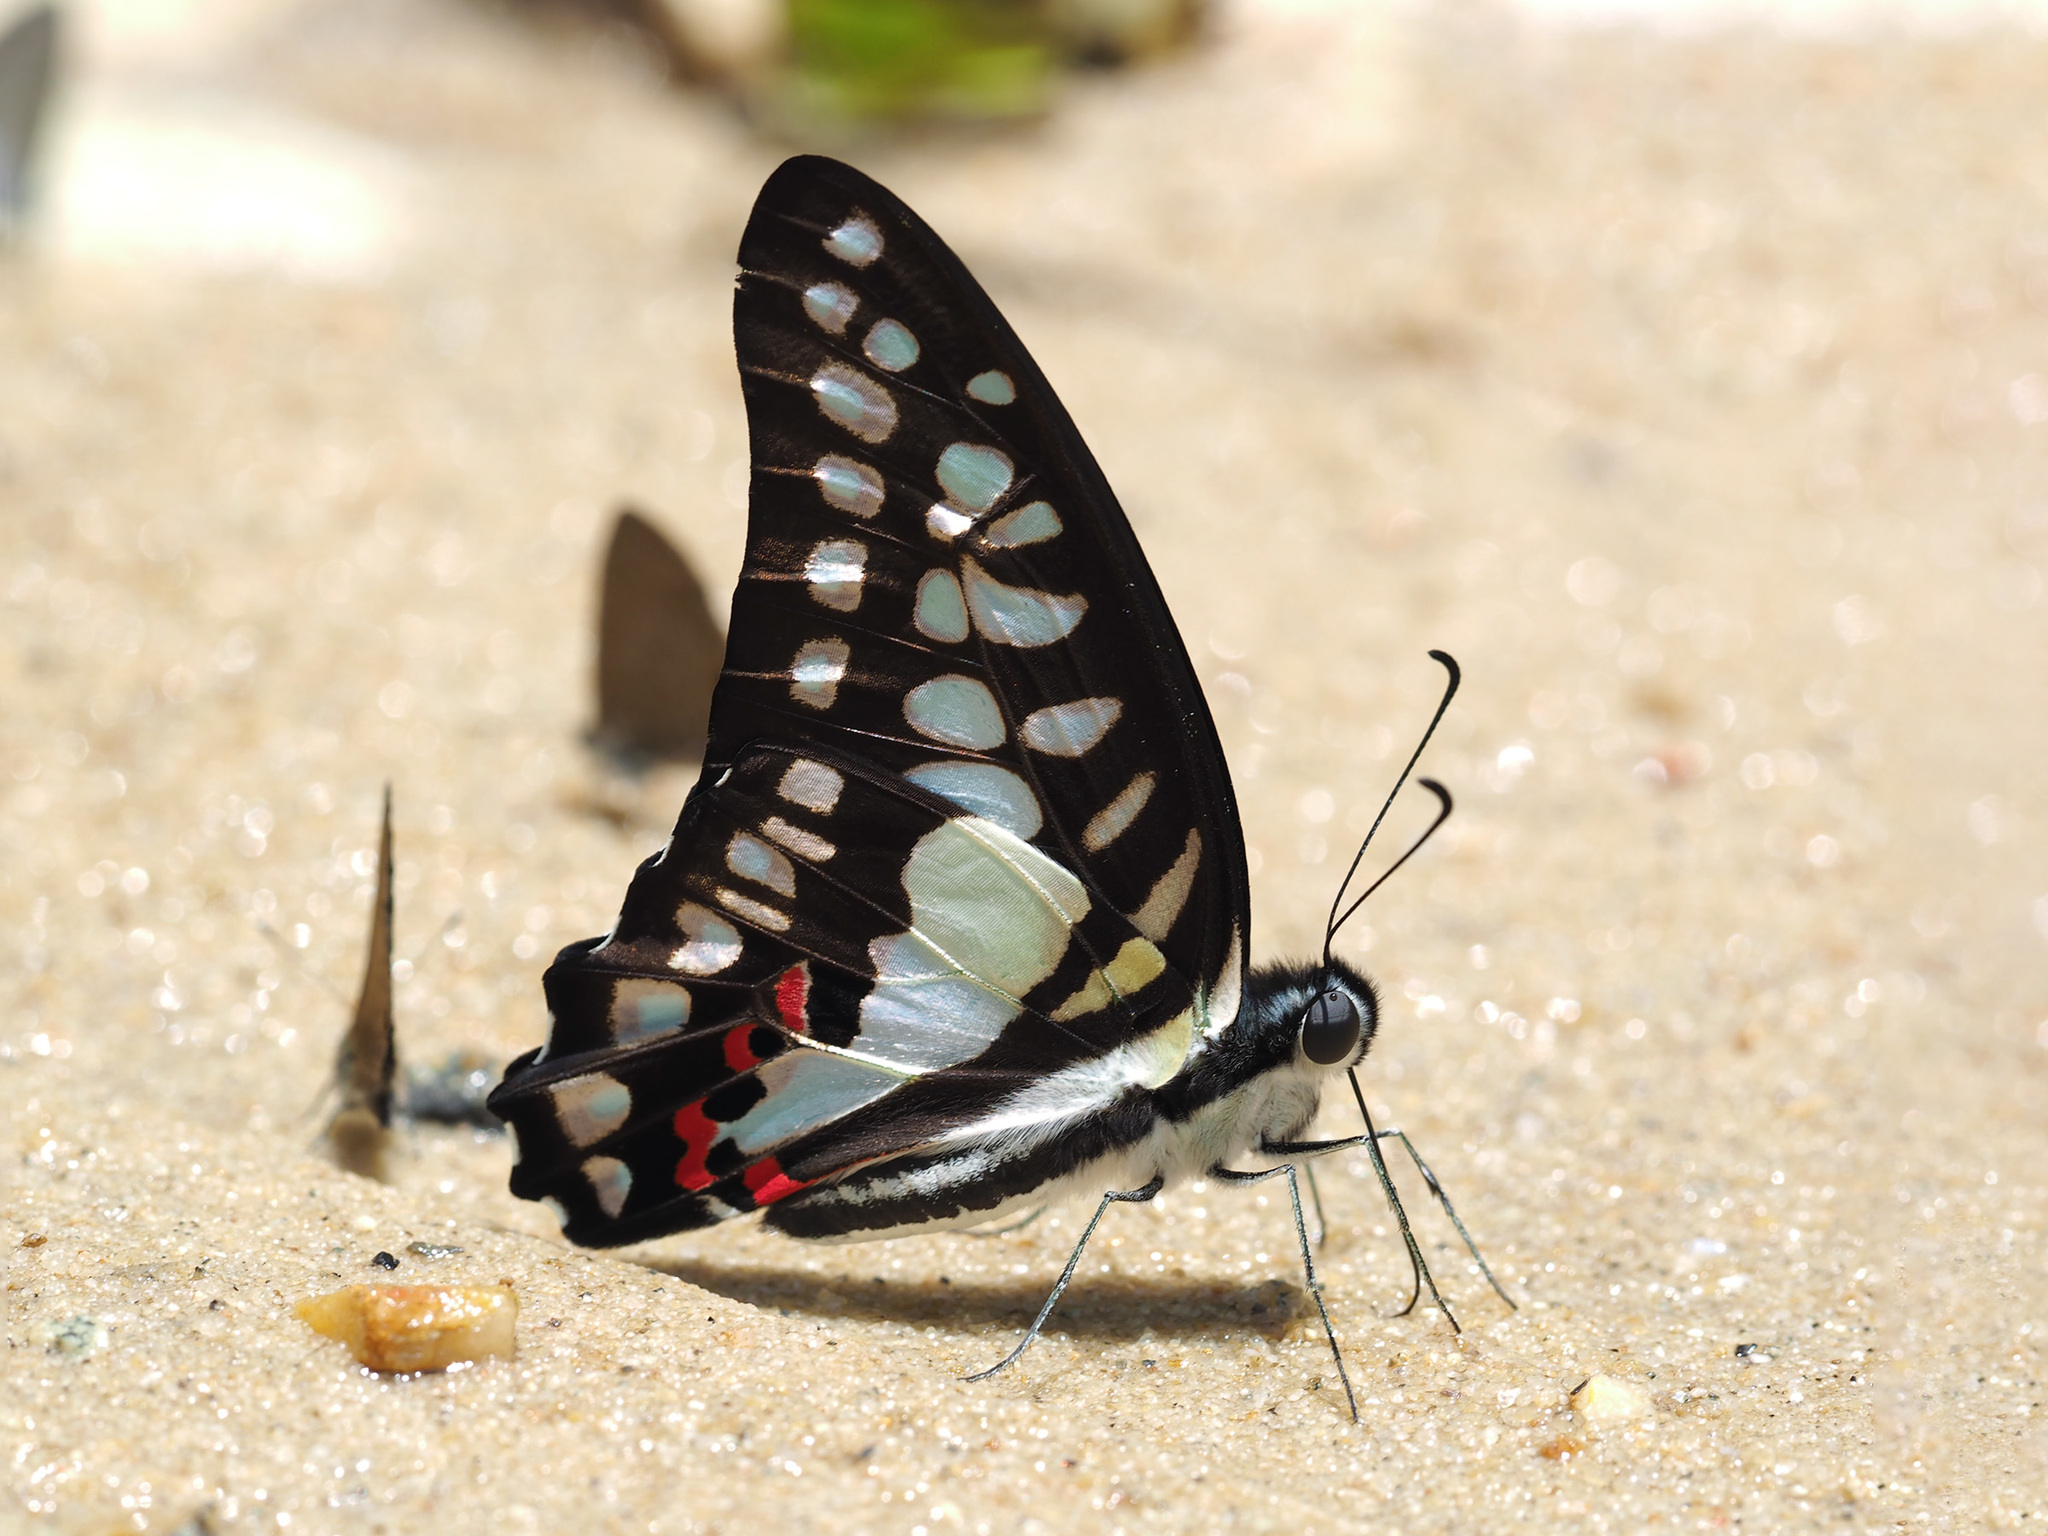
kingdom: Animalia
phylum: Arthropoda
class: Insecta
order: Lepidoptera
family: Papilionidae
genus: Graphium
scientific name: Graphium evemon
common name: Lesser jay
